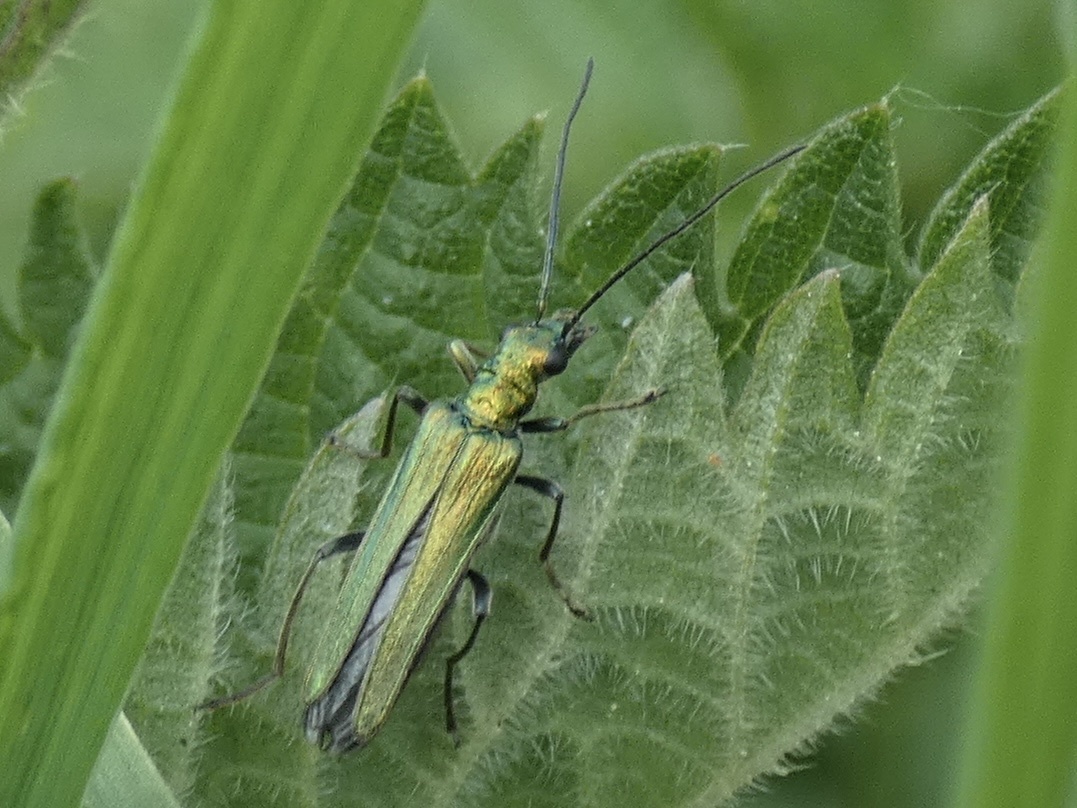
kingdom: Animalia
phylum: Arthropoda
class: Insecta
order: Coleoptera
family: Oedemeridae
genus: Oedemera
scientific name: Oedemera nobilis
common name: Swollen-thighed beetle
